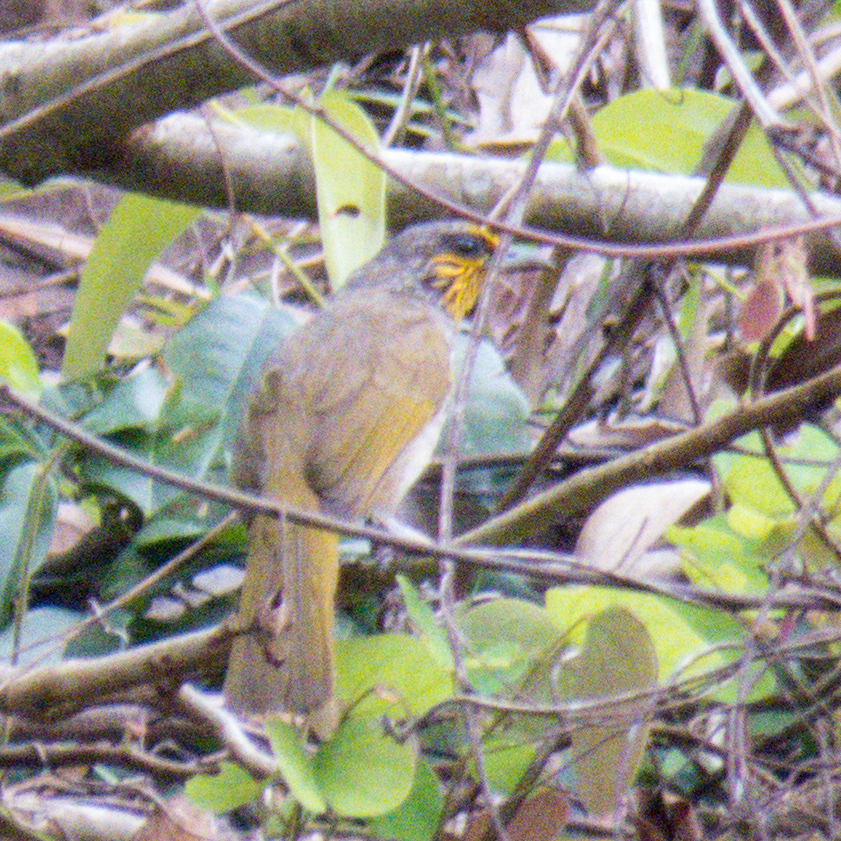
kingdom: Animalia
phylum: Chordata
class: Aves
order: Passeriformes
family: Pycnonotidae
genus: Pycnonotus
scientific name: Pycnonotus finlaysoni
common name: Stripe-throated bulbul
